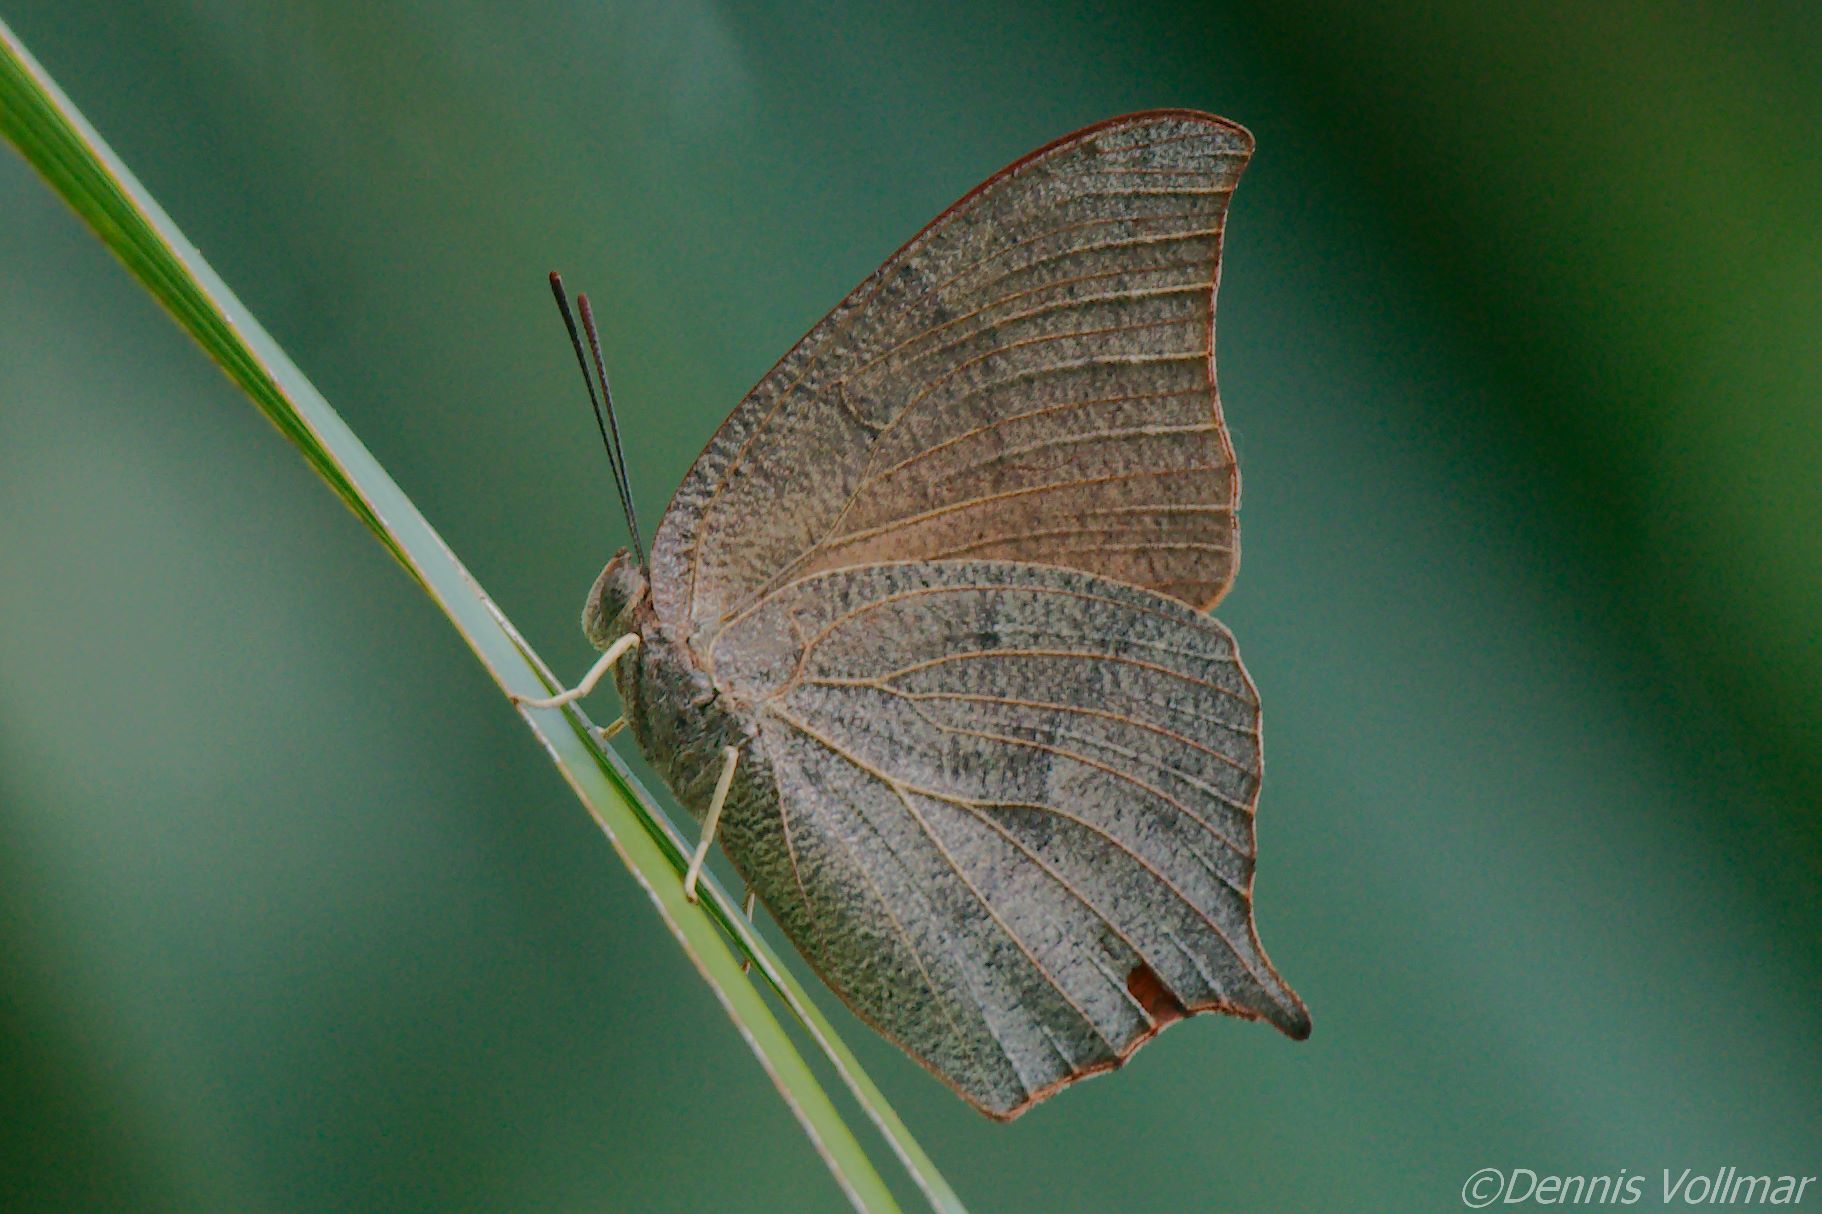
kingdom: Animalia
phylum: Arthropoda
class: Insecta
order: Lepidoptera
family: Nymphalidae
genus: Anaea
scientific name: Anaea andria
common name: Goatweed leafwing
